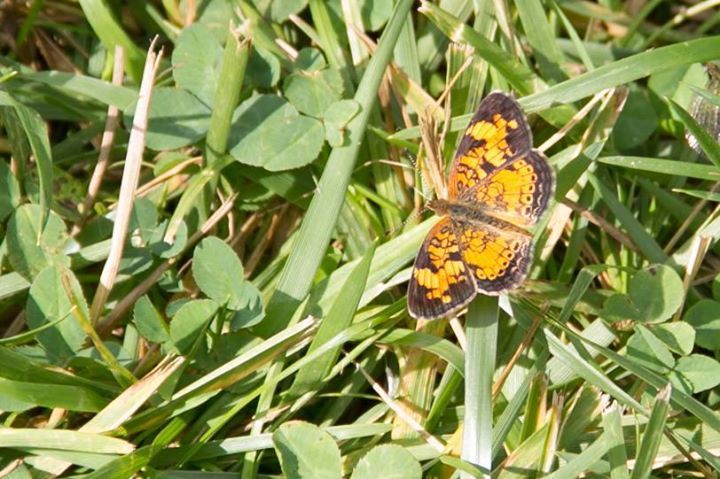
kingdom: Animalia
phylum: Arthropoda
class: Insecta
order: Lepidoptera
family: Nymphalidae
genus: Phyciodes
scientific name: Phyciodes tharos
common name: Pearl crescent
